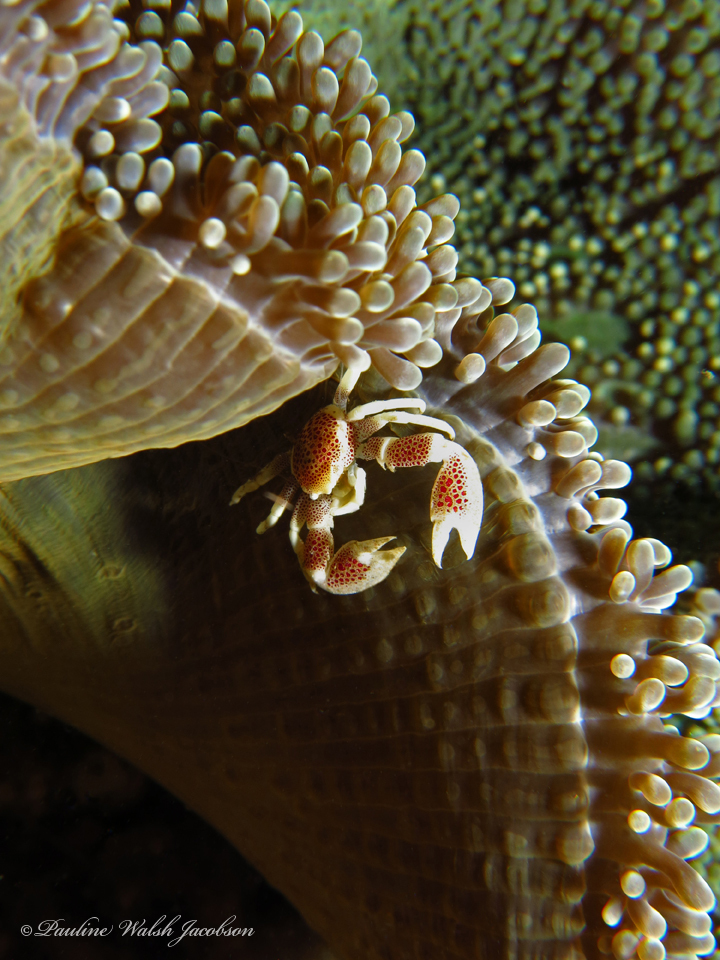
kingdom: Animalia
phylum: Arthropoda
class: Malacostraca
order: Decapoda
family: Porcellanidae
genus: Neopetrolisthes
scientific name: Neopetrolisthes maculatus
